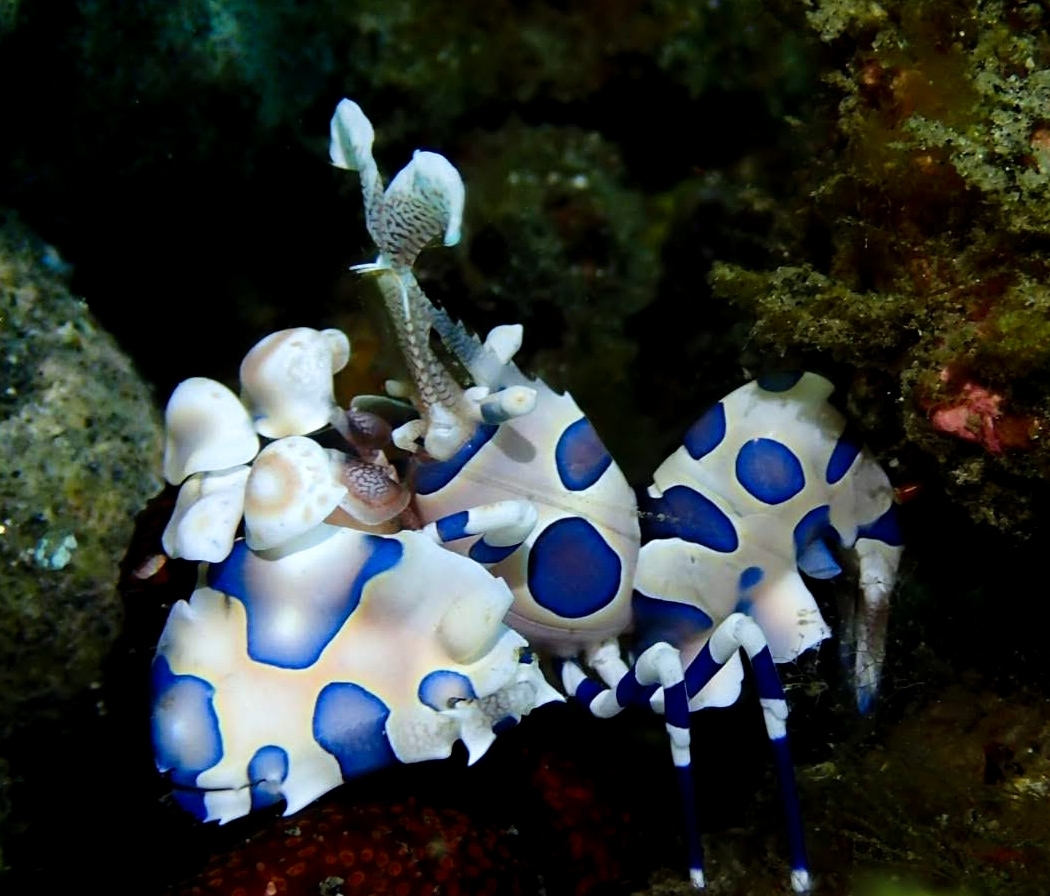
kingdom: Animalia
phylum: Arthropoda
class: Malacostraca
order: Decapoda
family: Palaemonidae
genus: Hymenocera
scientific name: Hymenocera picta
